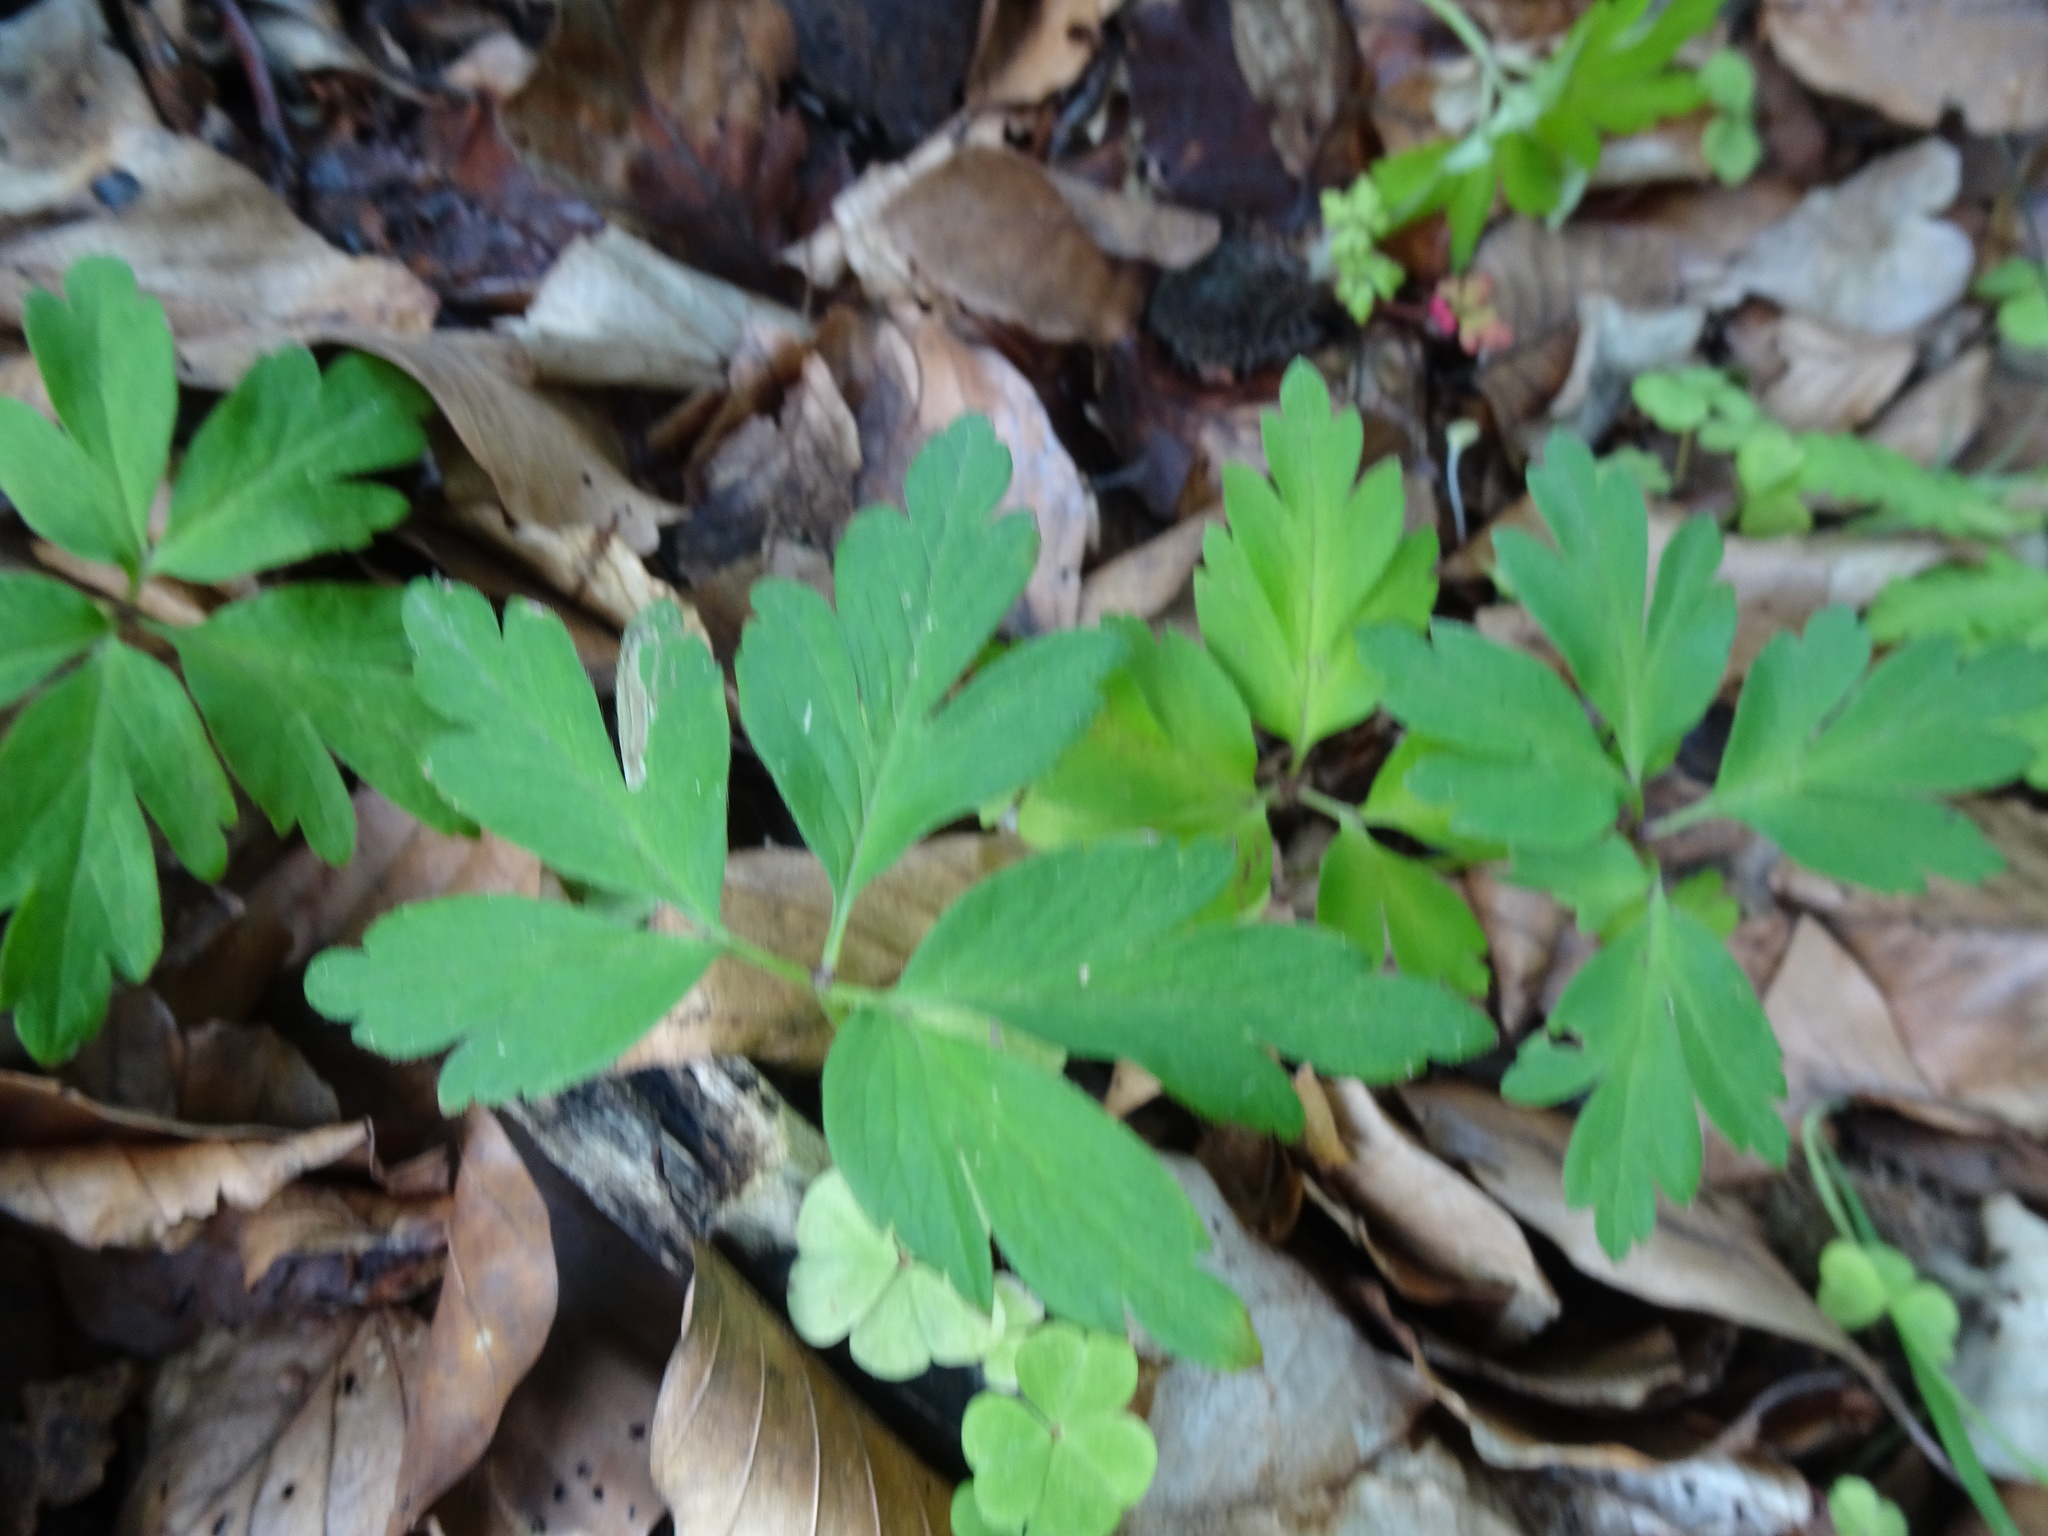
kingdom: Plantae
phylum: Tracheophyta
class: Magnoliopsida
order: Ranunculales
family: Ranunculaceae
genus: Anemone
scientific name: Anemone nemorosa
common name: Wood anemone
